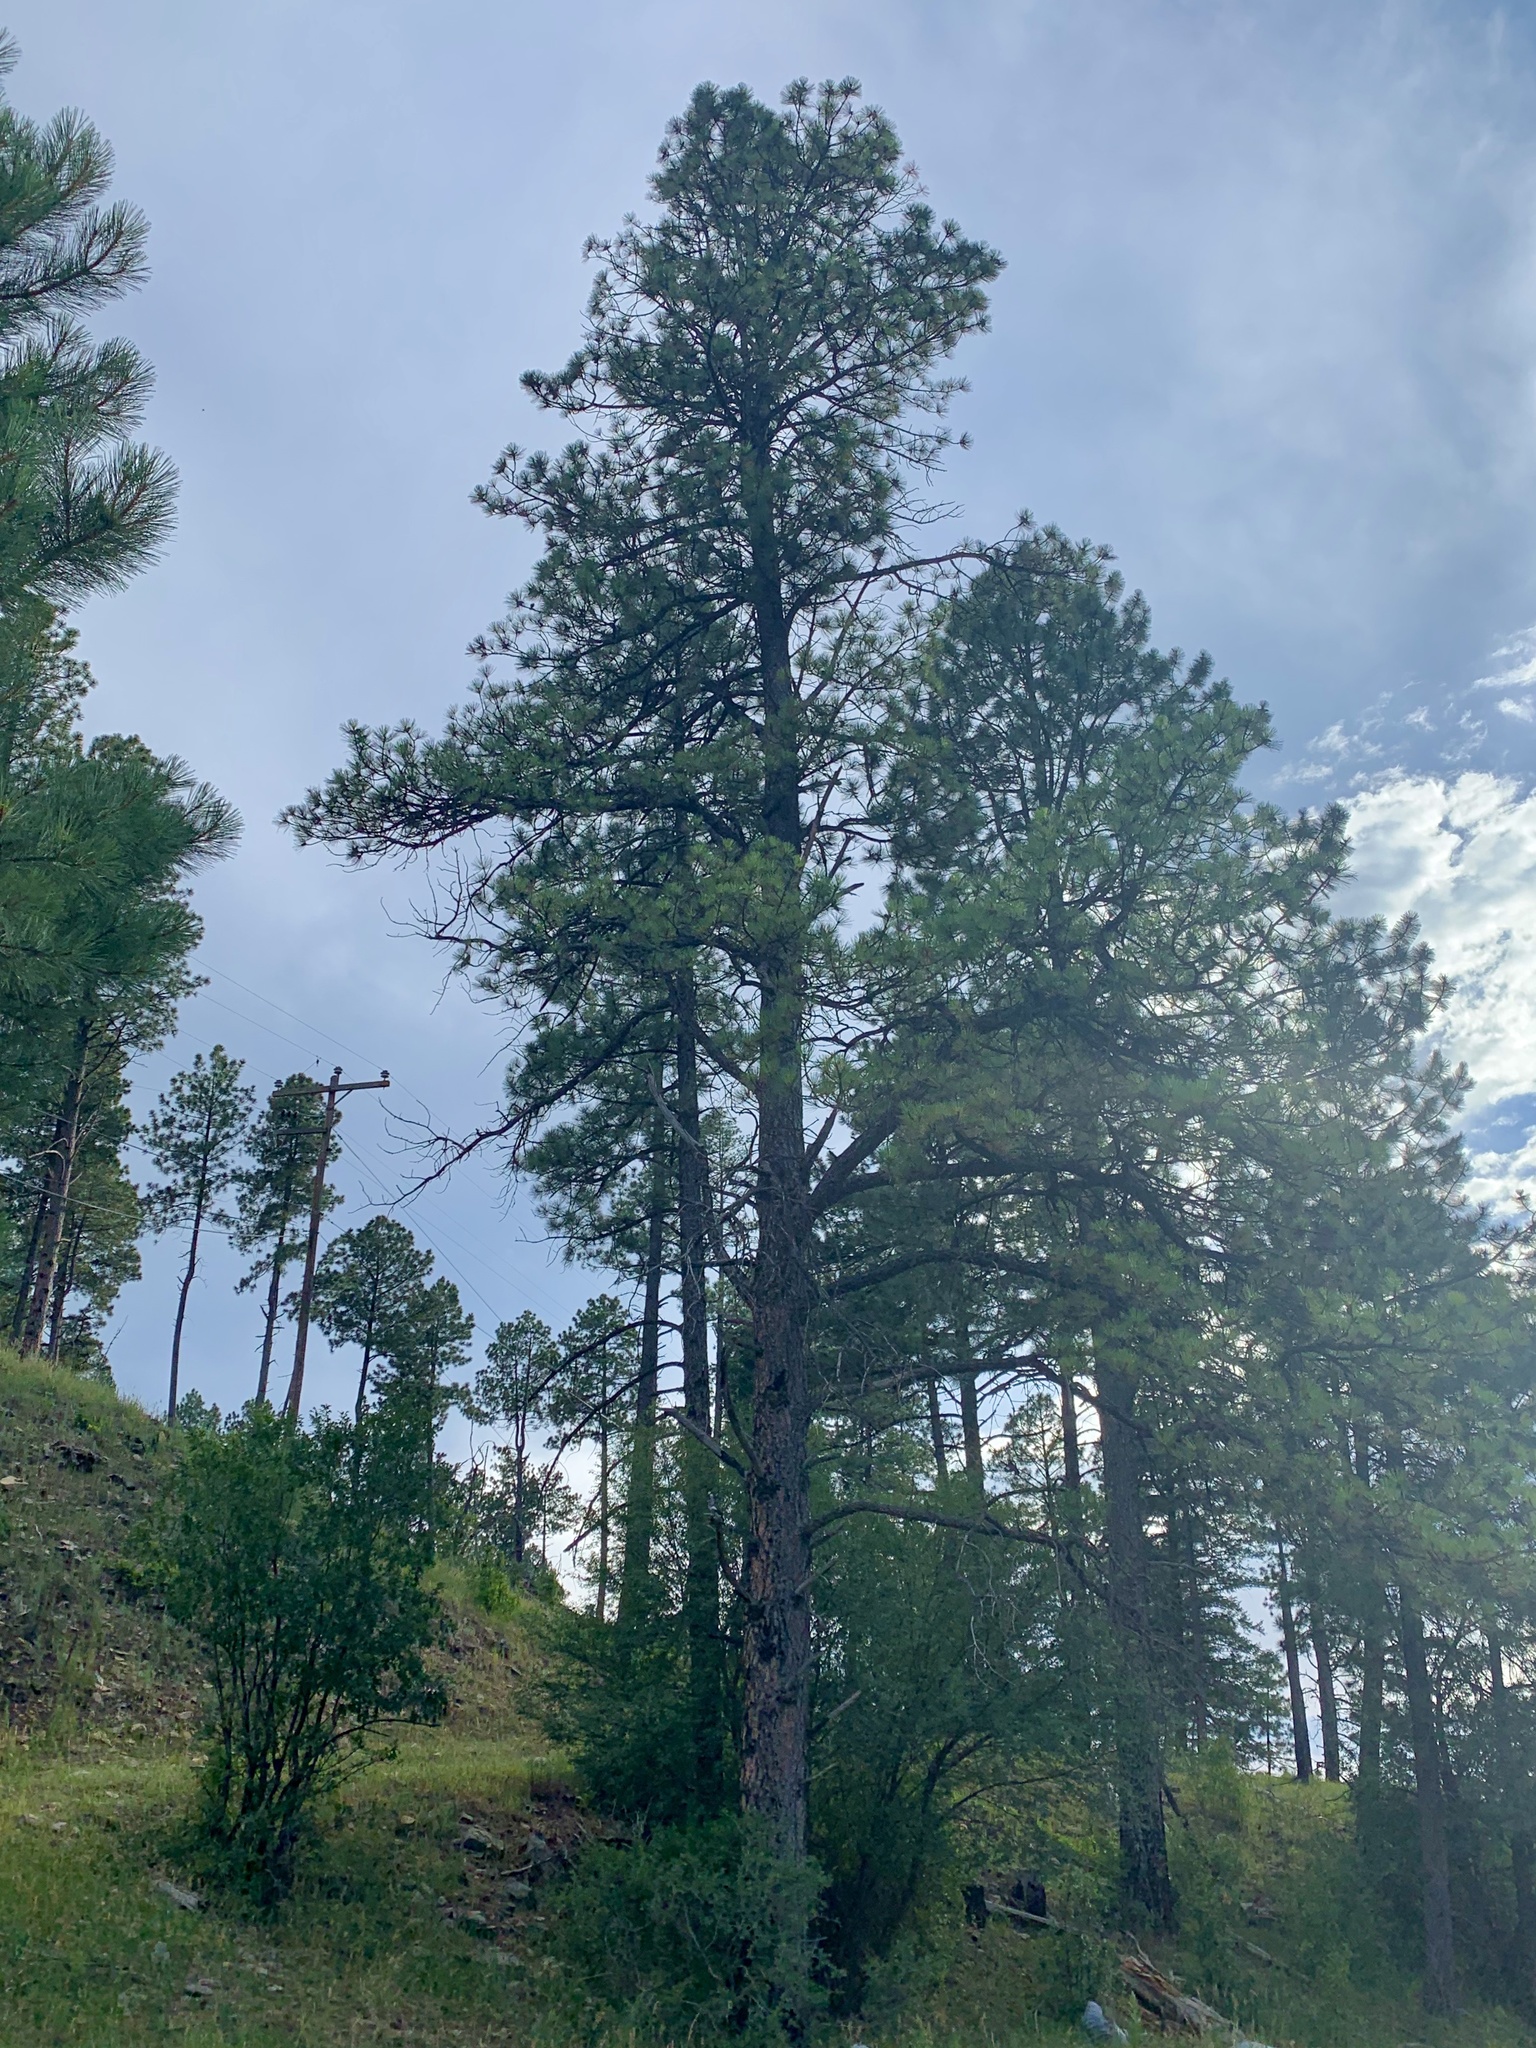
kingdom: Plantae
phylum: Tracheophyta
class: Pinopsida
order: Pinales
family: Pinaceae
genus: Pinus
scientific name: Pinus ponderosa
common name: Western yellow-pine
